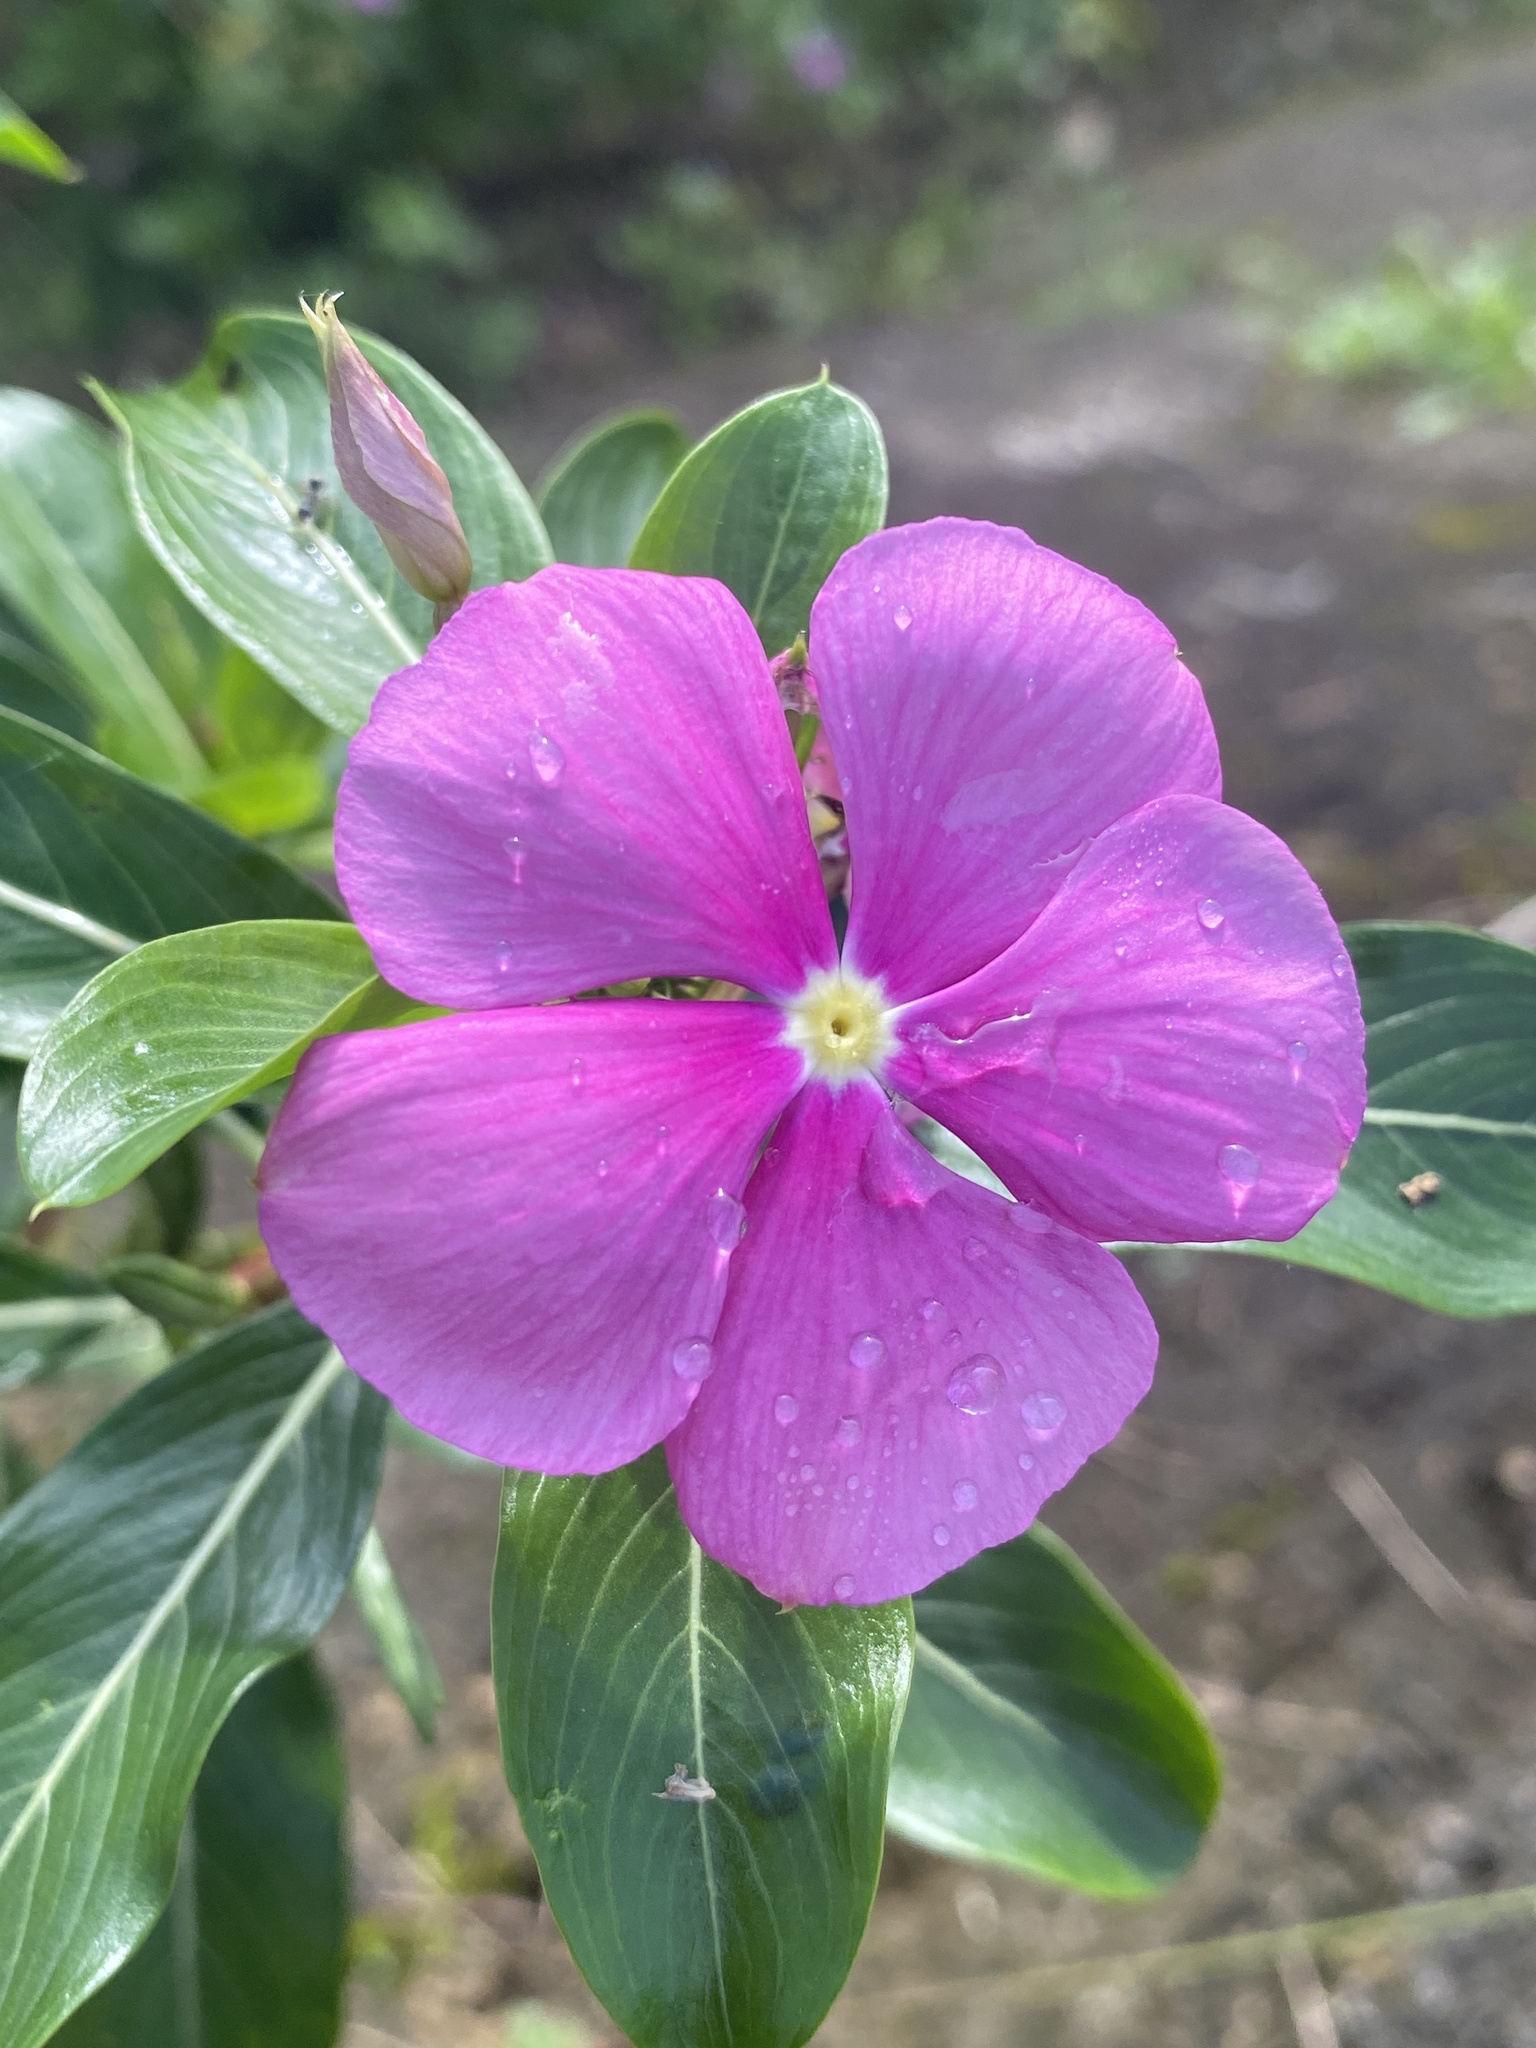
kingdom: Plantae
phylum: Tracheophyta
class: Magnoliopsida
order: Gentianales
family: Apocynaceae
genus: Catharanthus
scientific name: Catharanthus roseus
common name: Madagascar periwinkle
